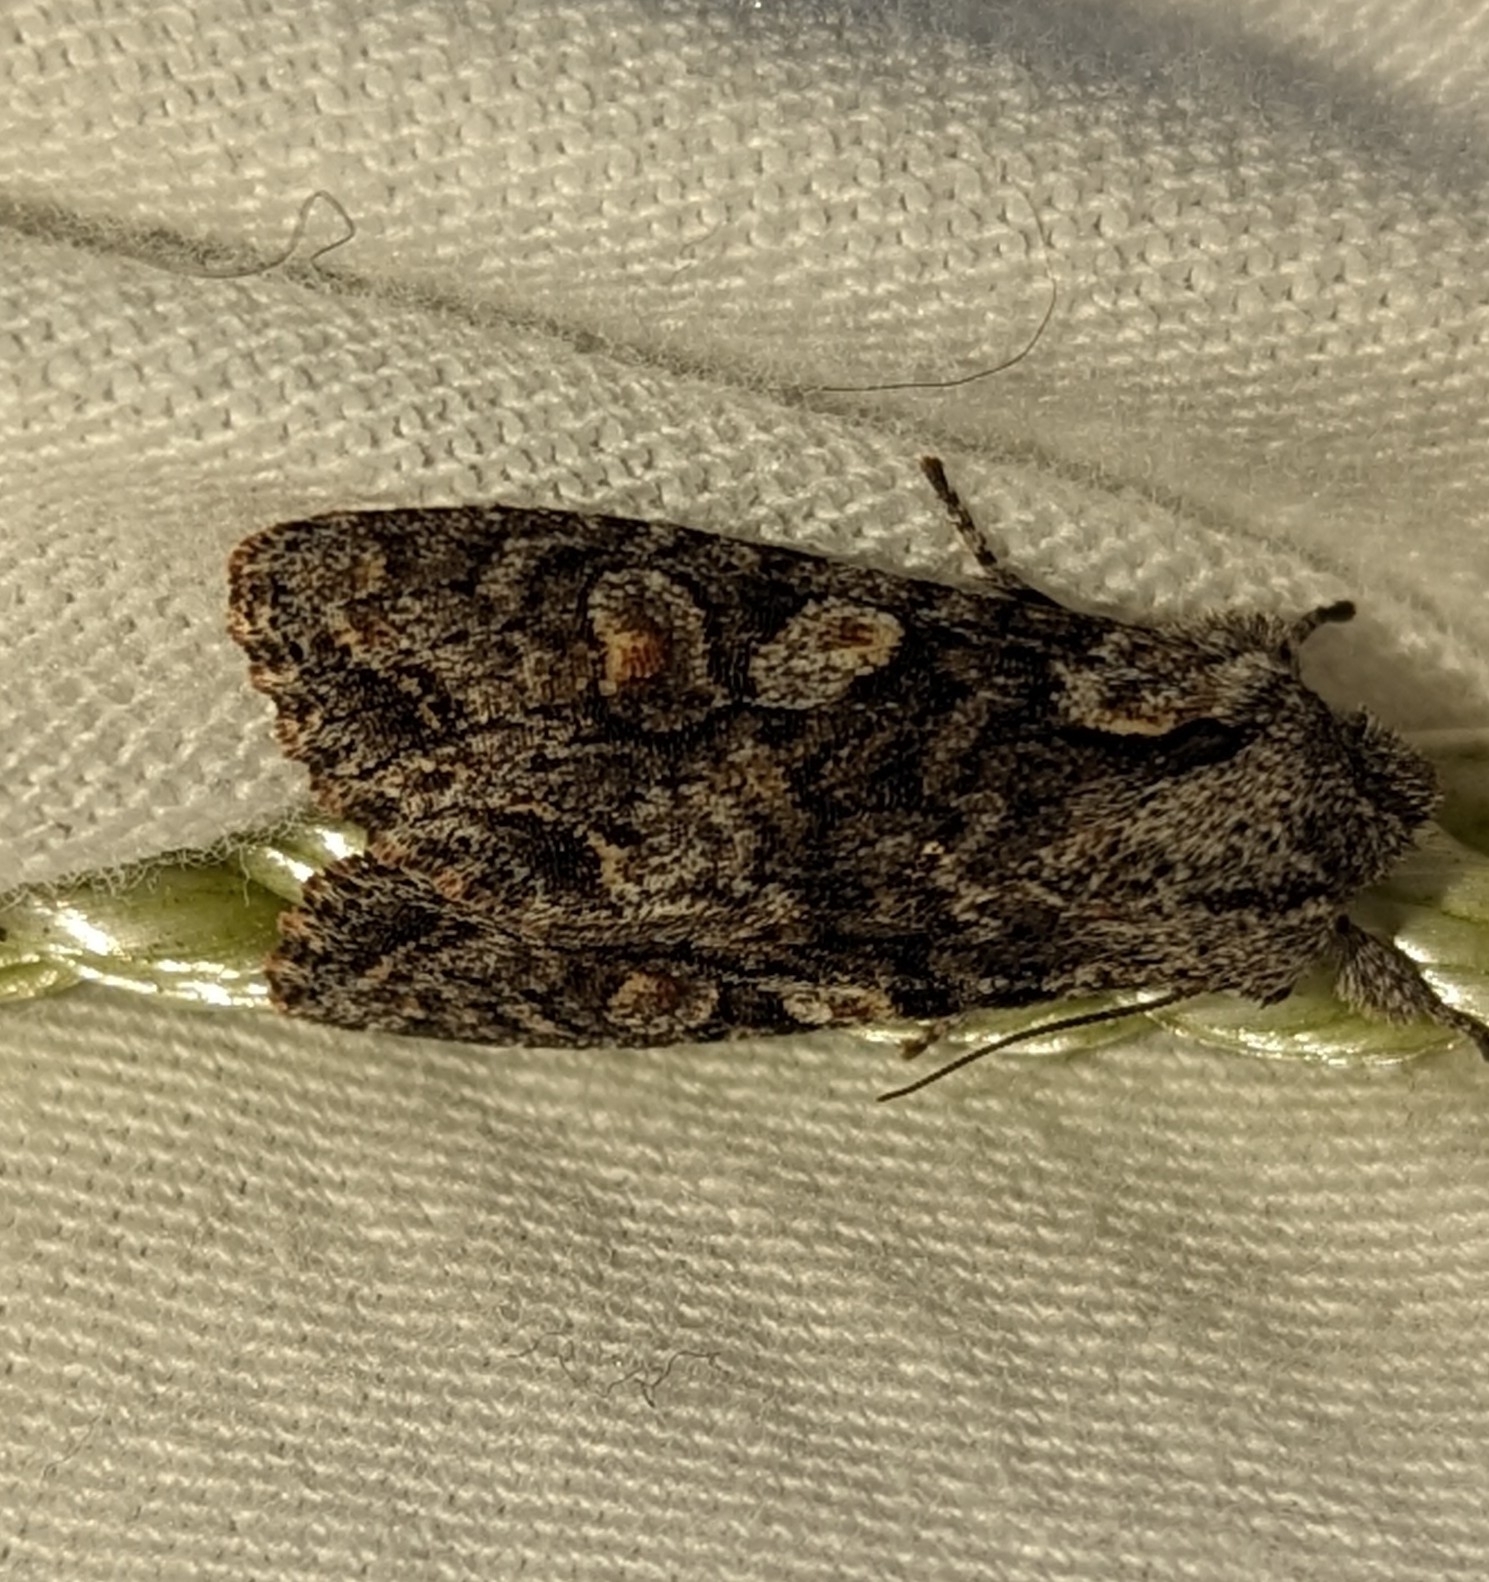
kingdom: Animalia
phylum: Arthropoda
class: Insecta
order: Lepidoptera
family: Noctuidae
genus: Egira
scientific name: Egira hiemalis
